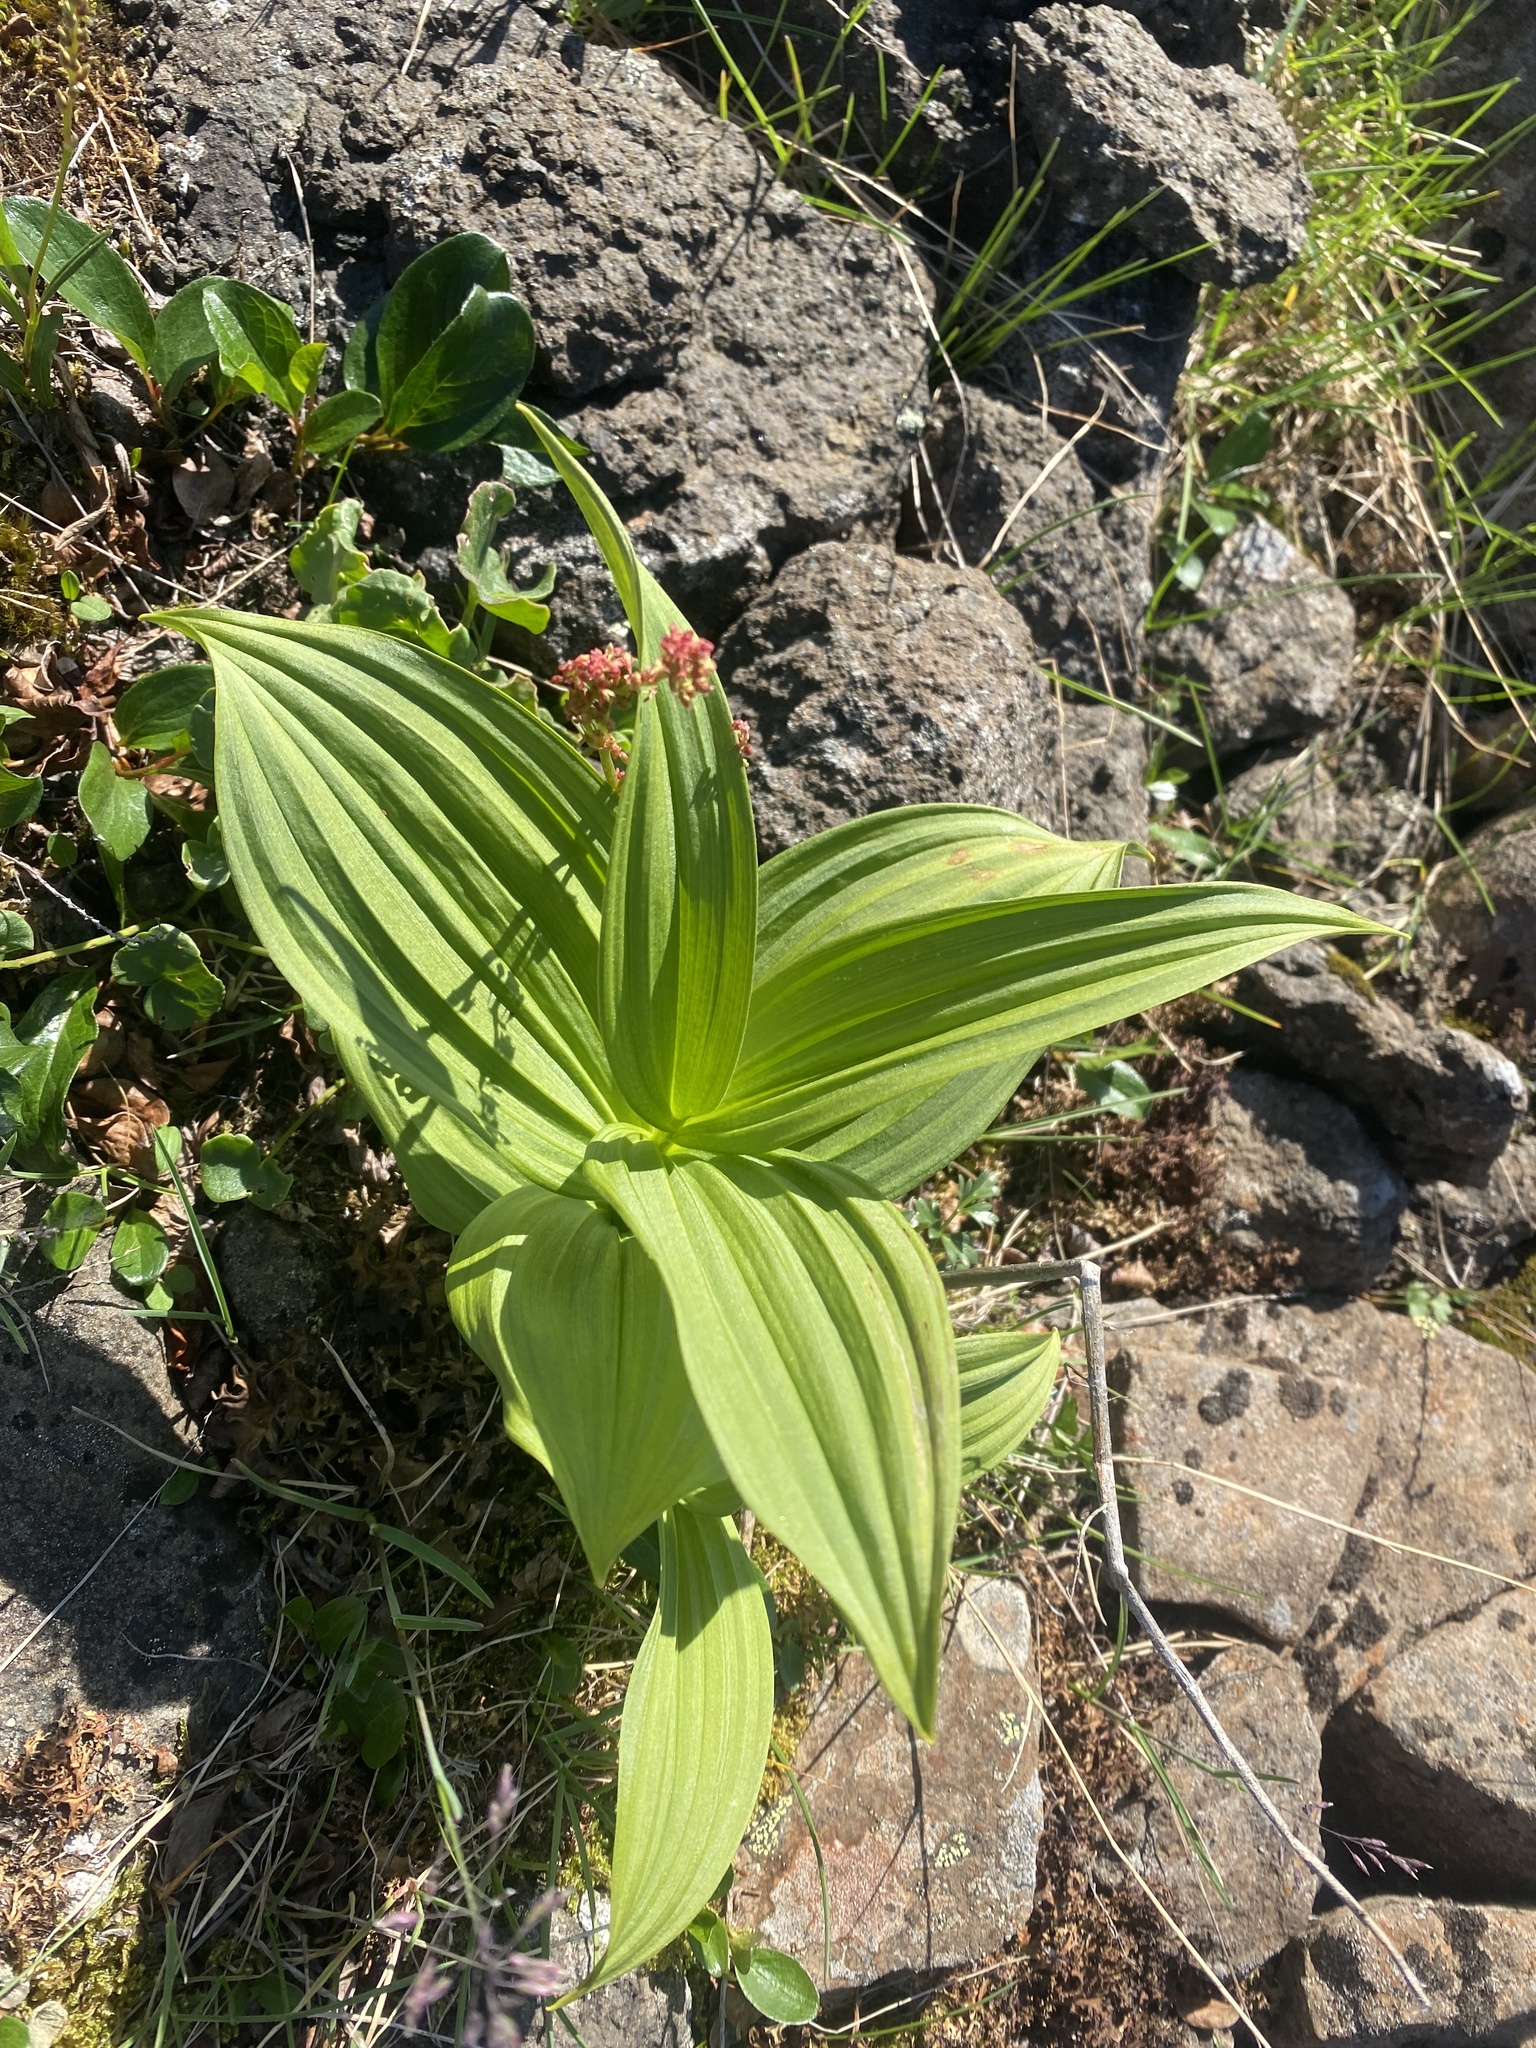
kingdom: Plantae
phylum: Tracheophyta
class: Liliopsida
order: Liliales
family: Melanthiaceae
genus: Veratrum
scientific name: Veratrum lobelianum
